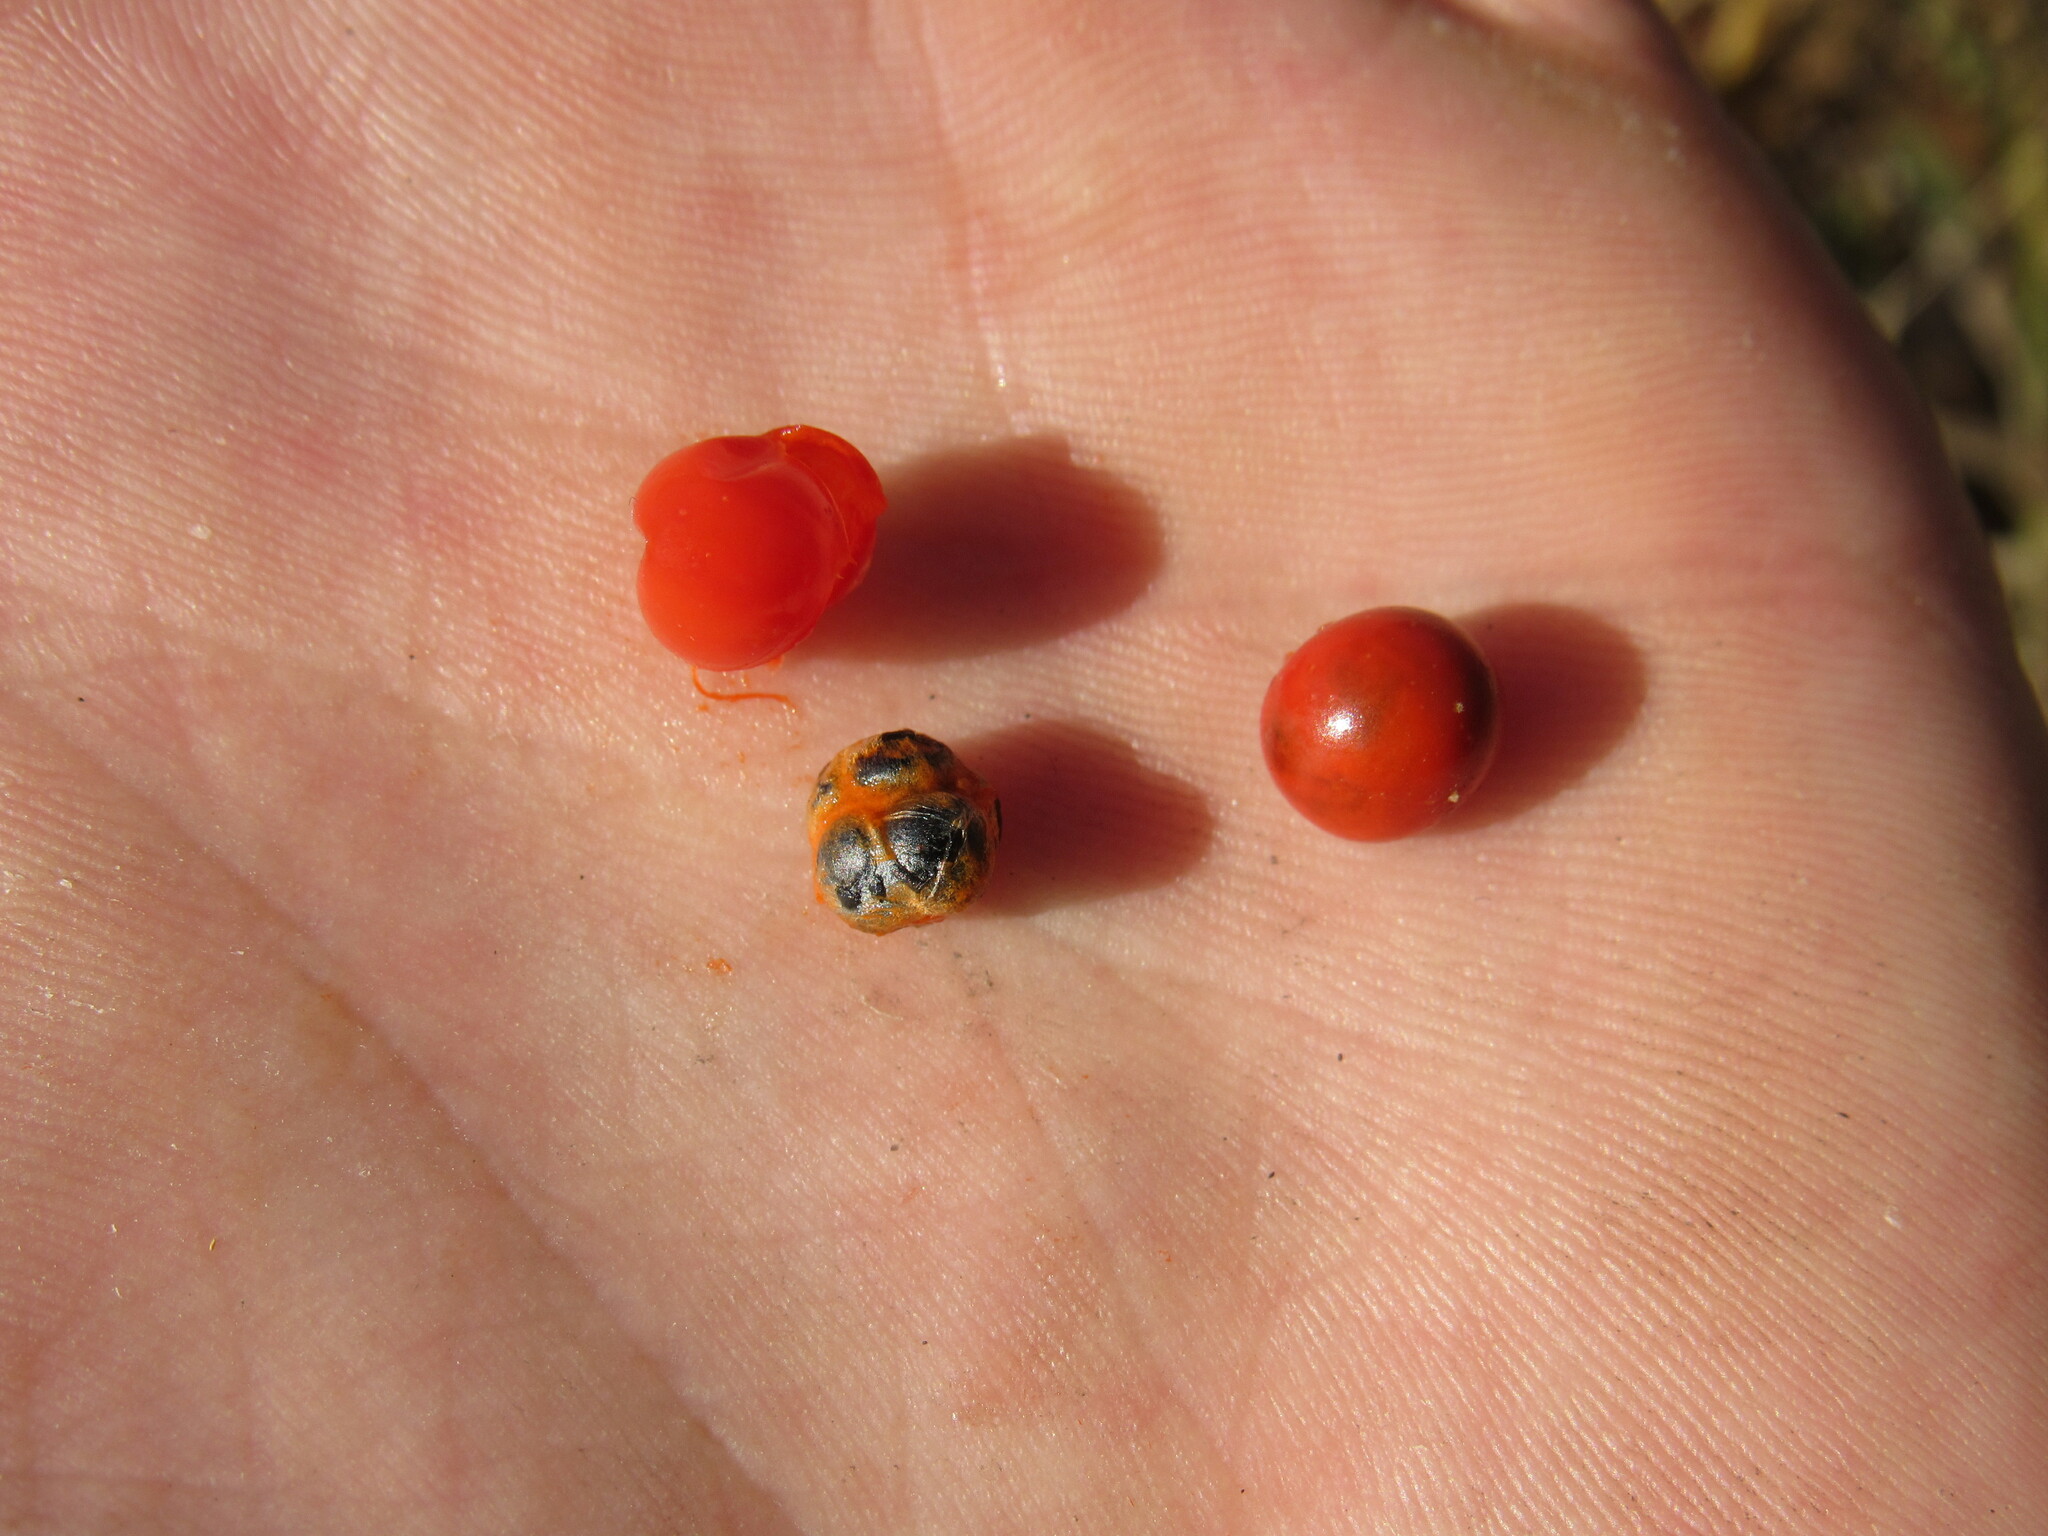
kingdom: Plantae
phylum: Tracheophyta
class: Liliopsida
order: Asparagales
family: Asparagaceae
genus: Asparagus
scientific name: Asparagus officinalis
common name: Garden asparagus
